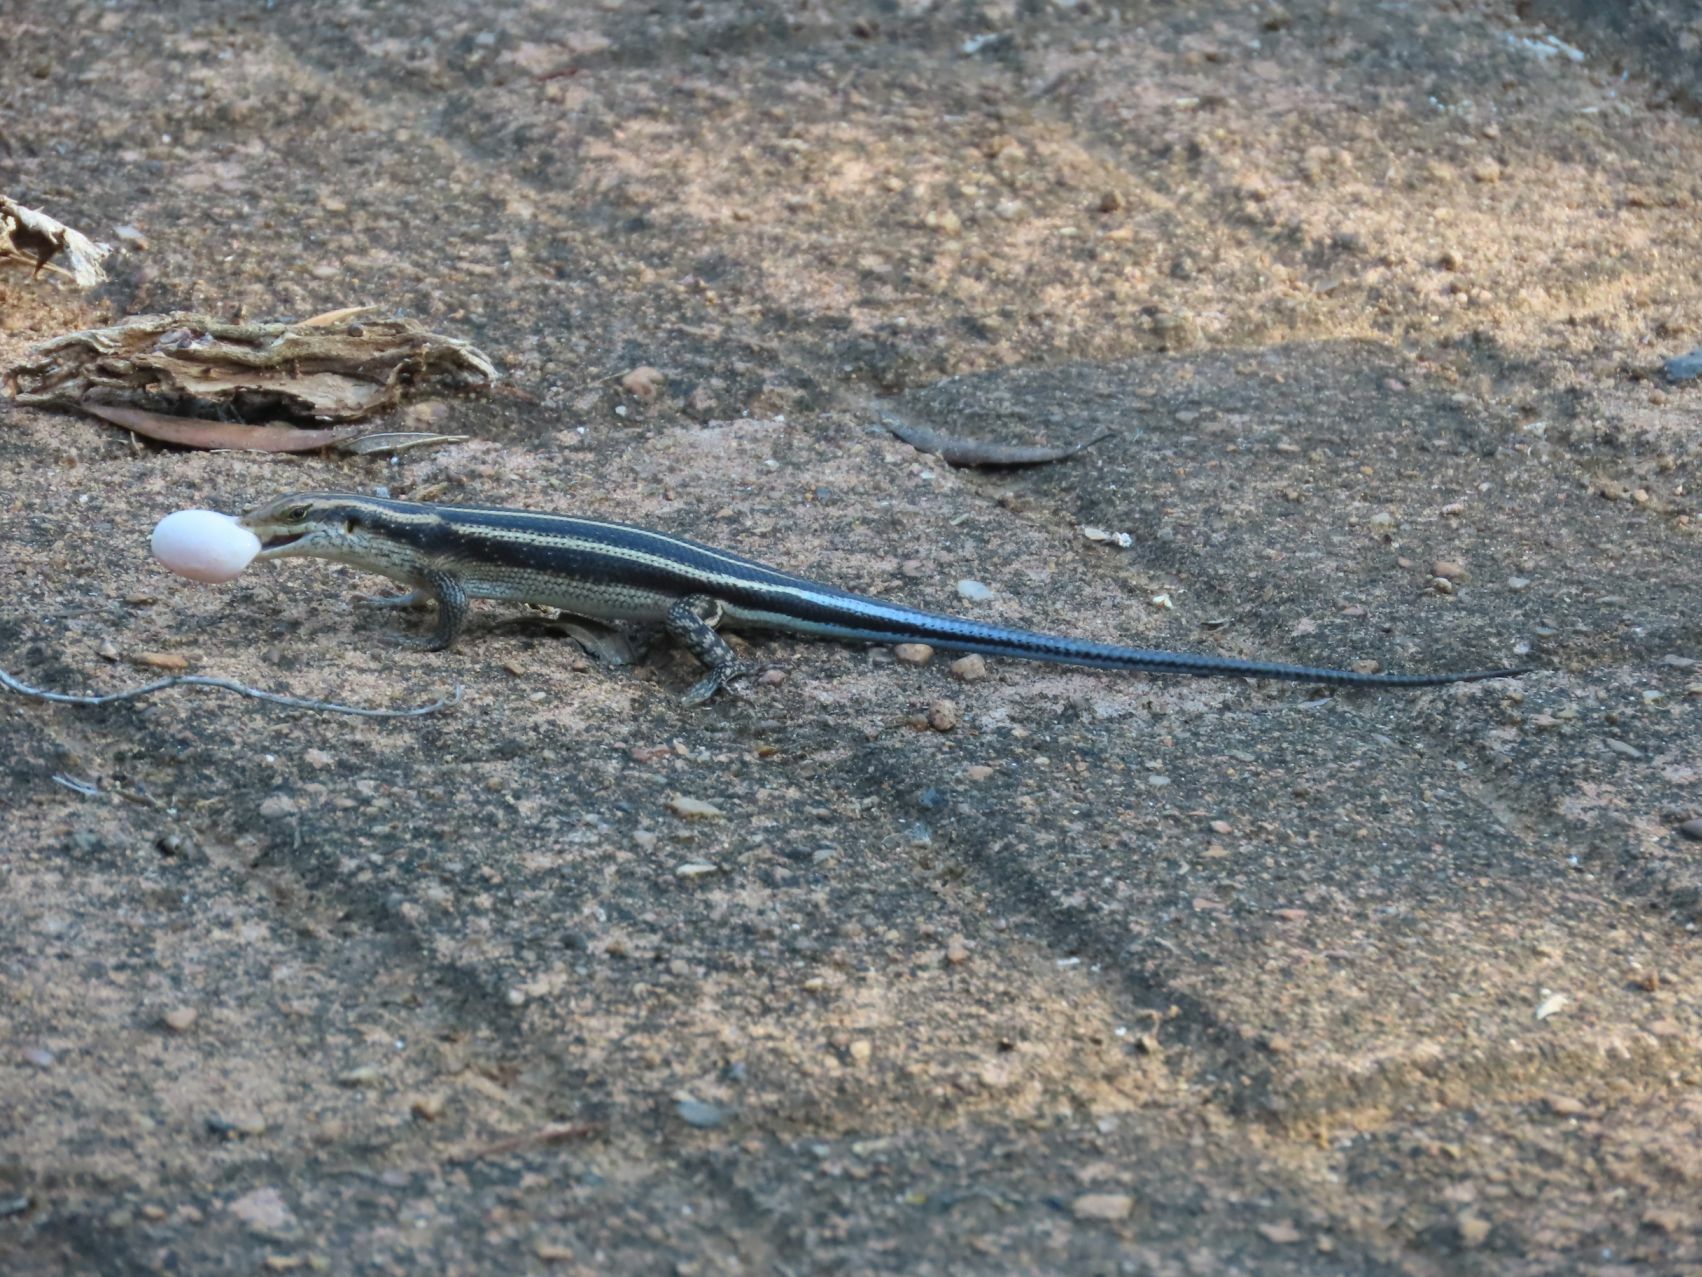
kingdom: Animalia
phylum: Chordata
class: Squamata
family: Scincidae
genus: Trachylepis
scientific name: Trachylepis margaritifera
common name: Rainbow skink
